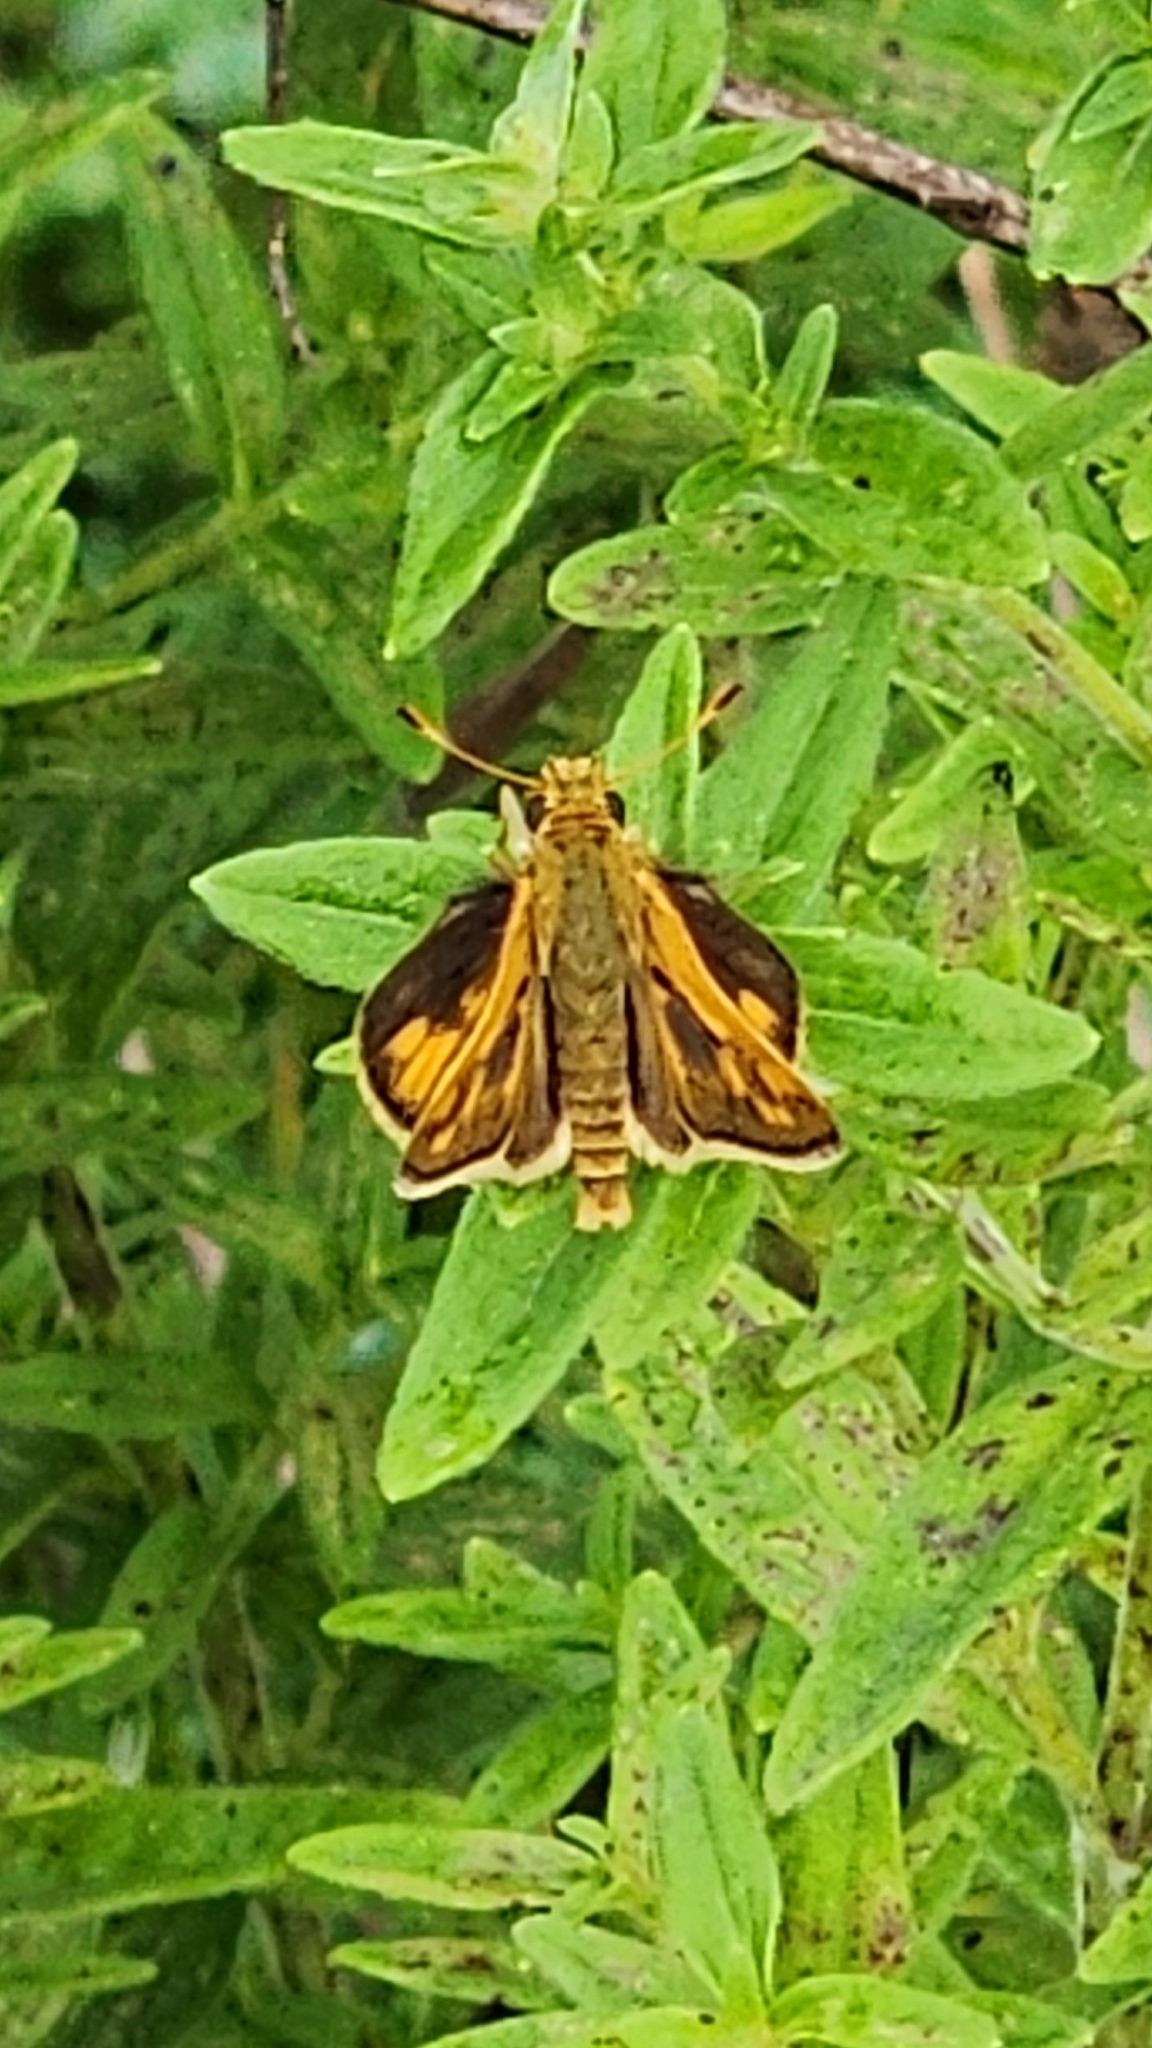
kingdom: Animalia
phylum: Arthropoda
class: Insecta
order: Lepidoptera
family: Hesperiidae
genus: Polites
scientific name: Polites coras
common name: Peck's skipper
